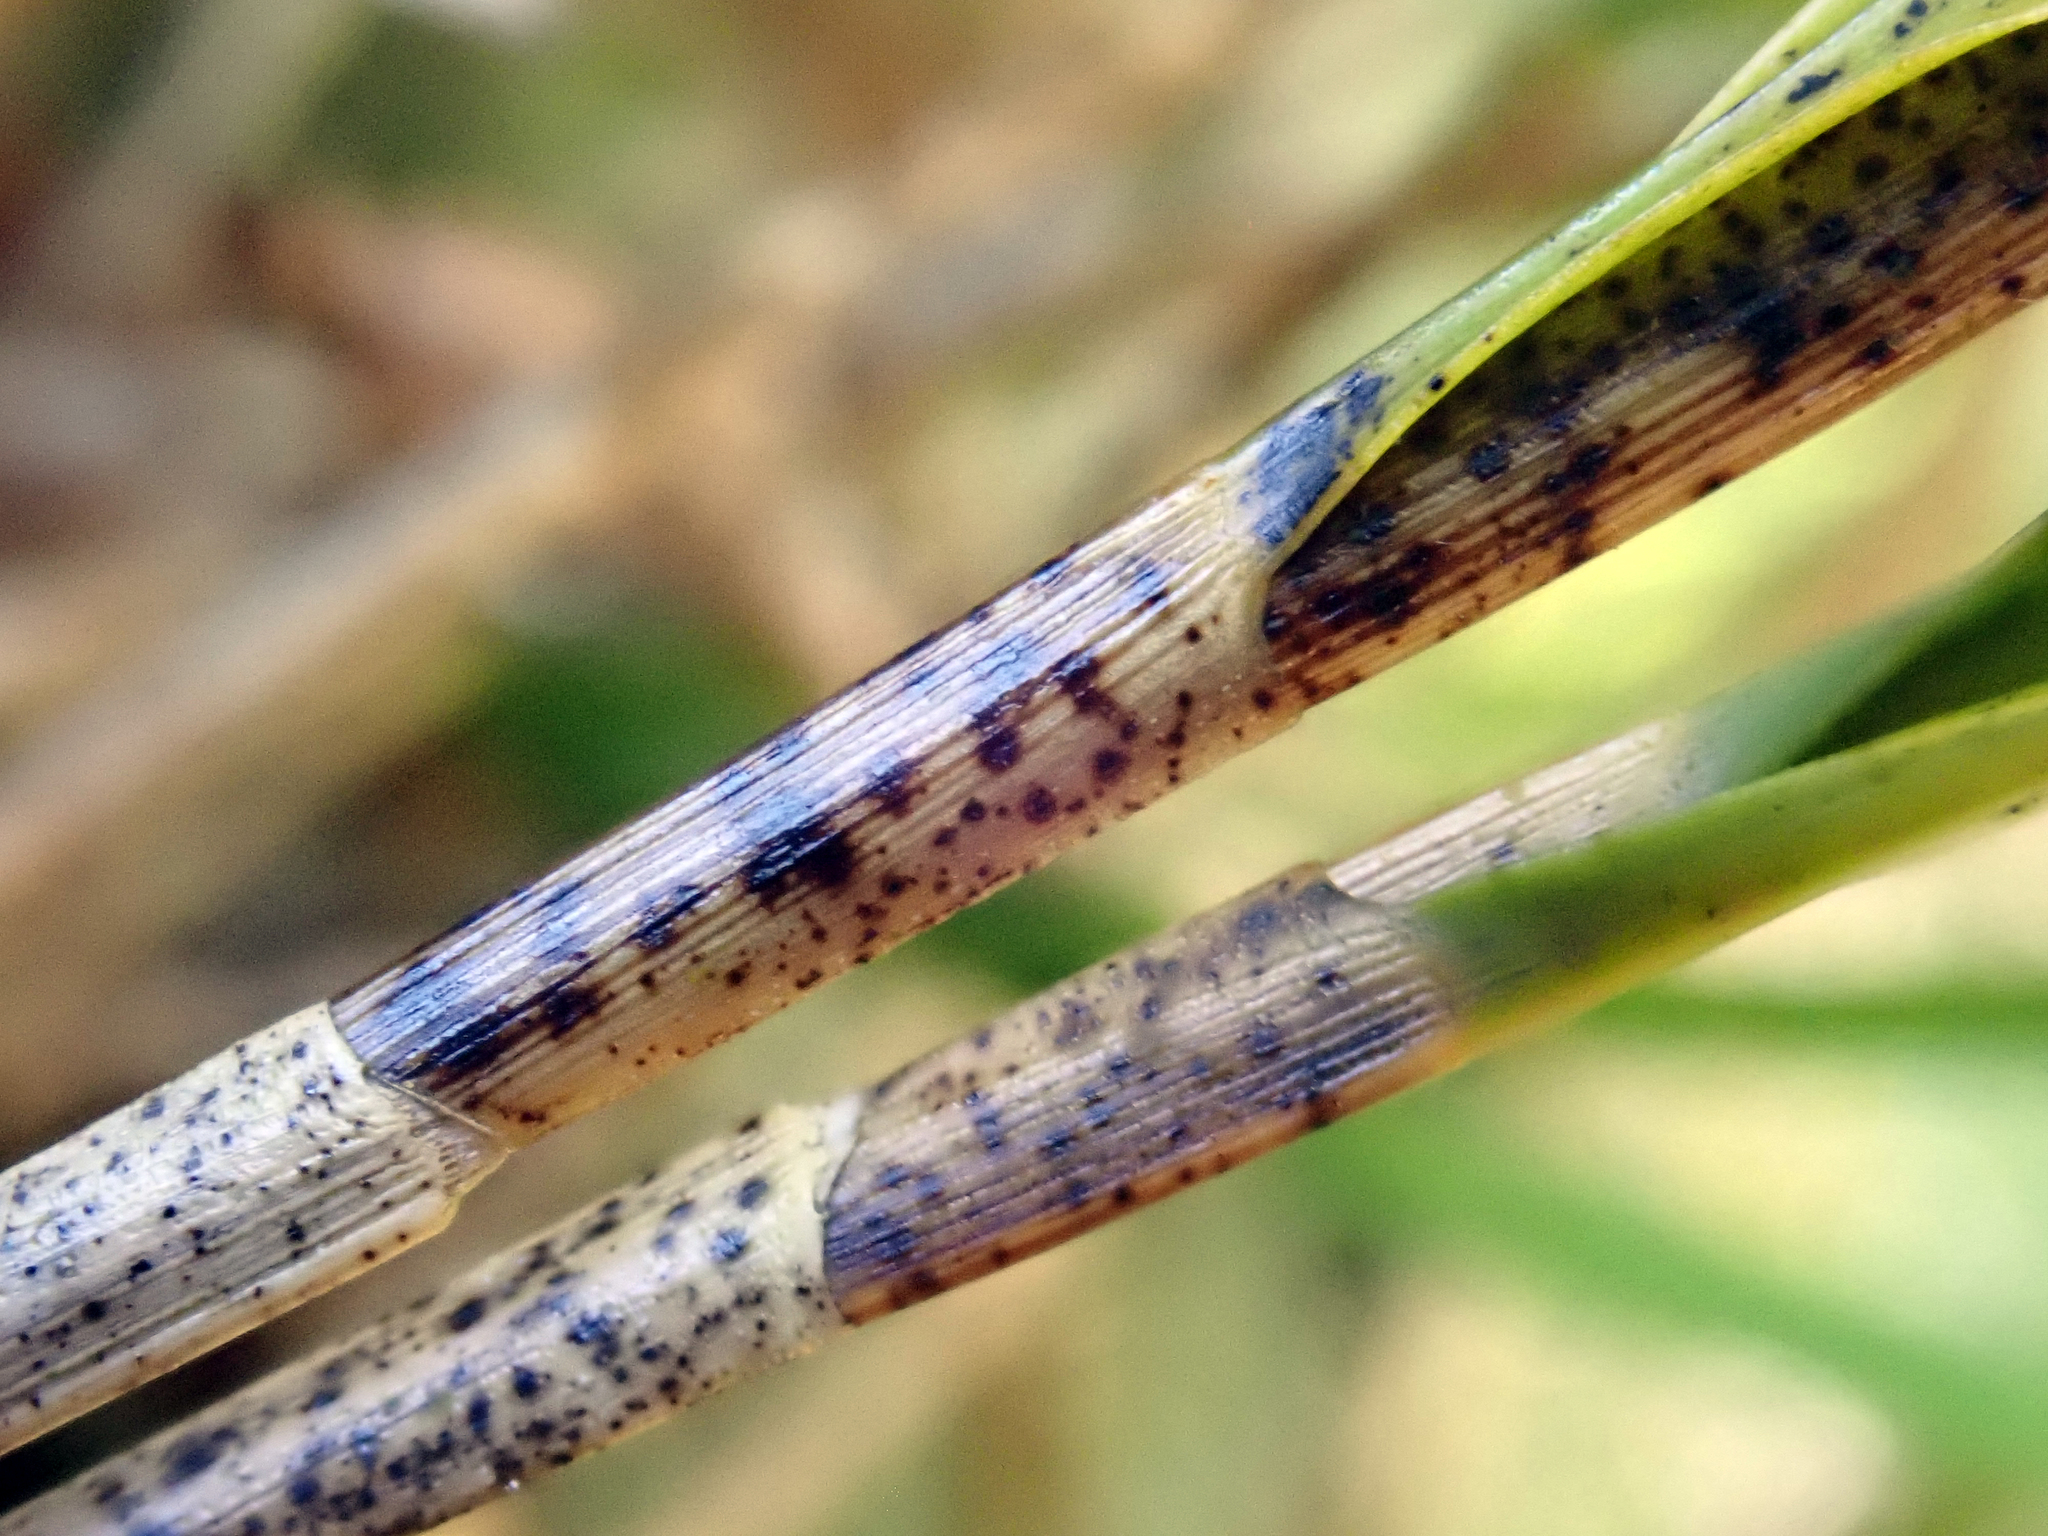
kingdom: Plantae
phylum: Tracheophyta
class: Liliopsida
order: Asparagales
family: Orchidaceae
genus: Earina
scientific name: Earina aestivalis
